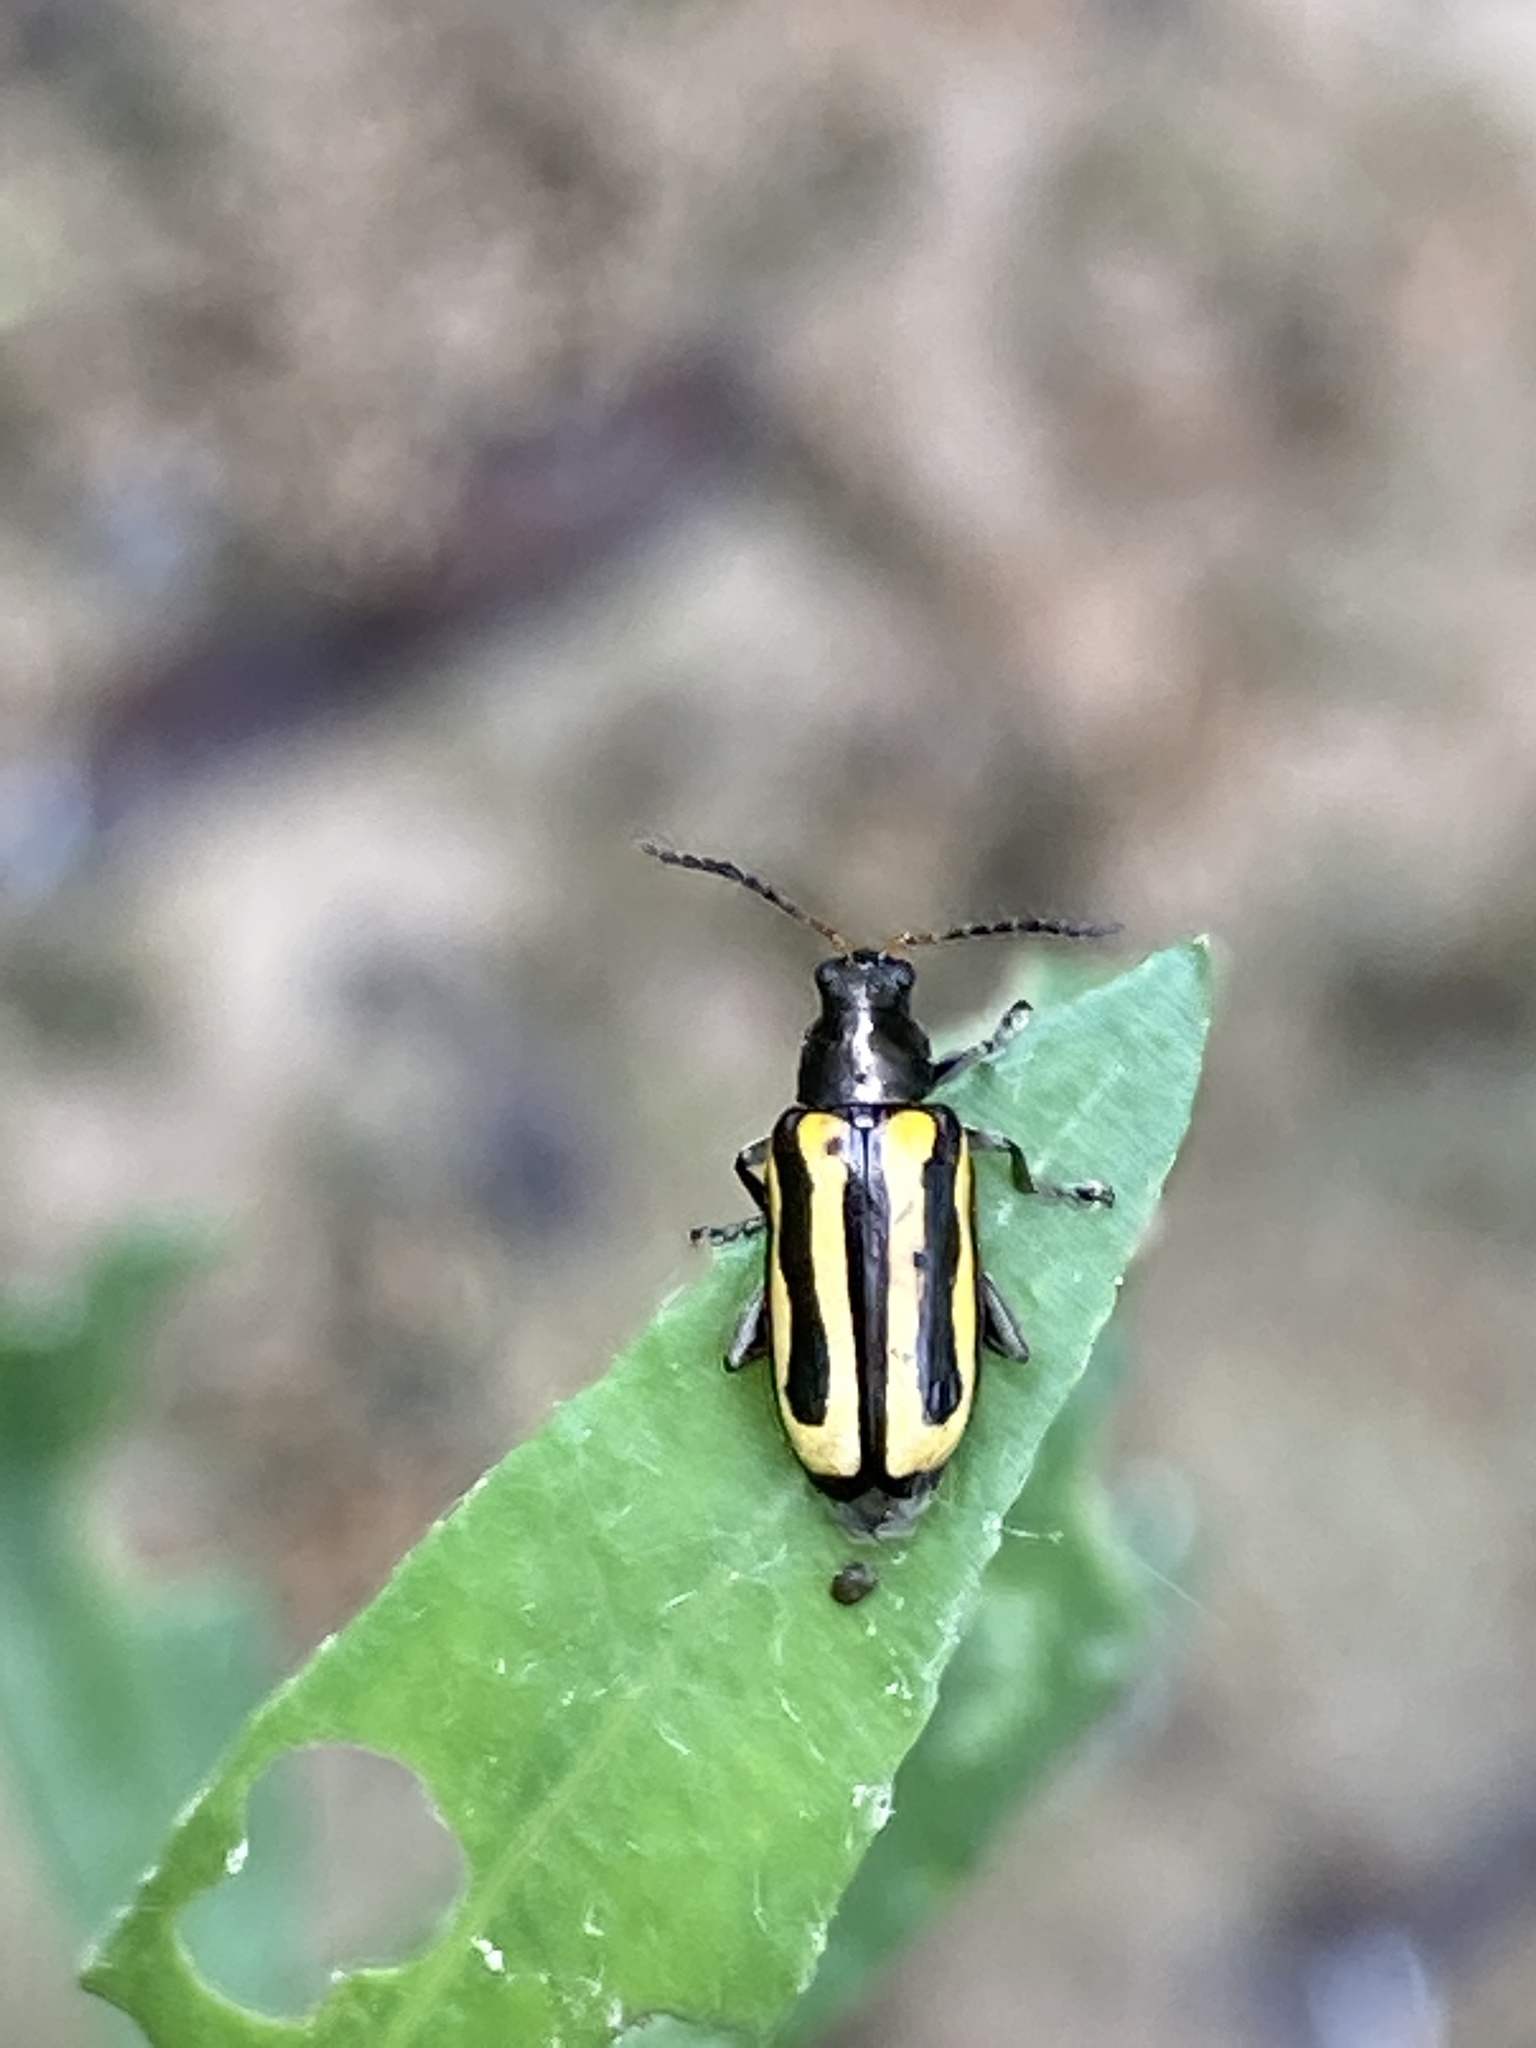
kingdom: Animalia
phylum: Arthropoda
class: Insecta
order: Coleoptera
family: Chrysomelidae
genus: Agasicles
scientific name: Agasicles hygrophila
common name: Alligatorweed flea beetle
